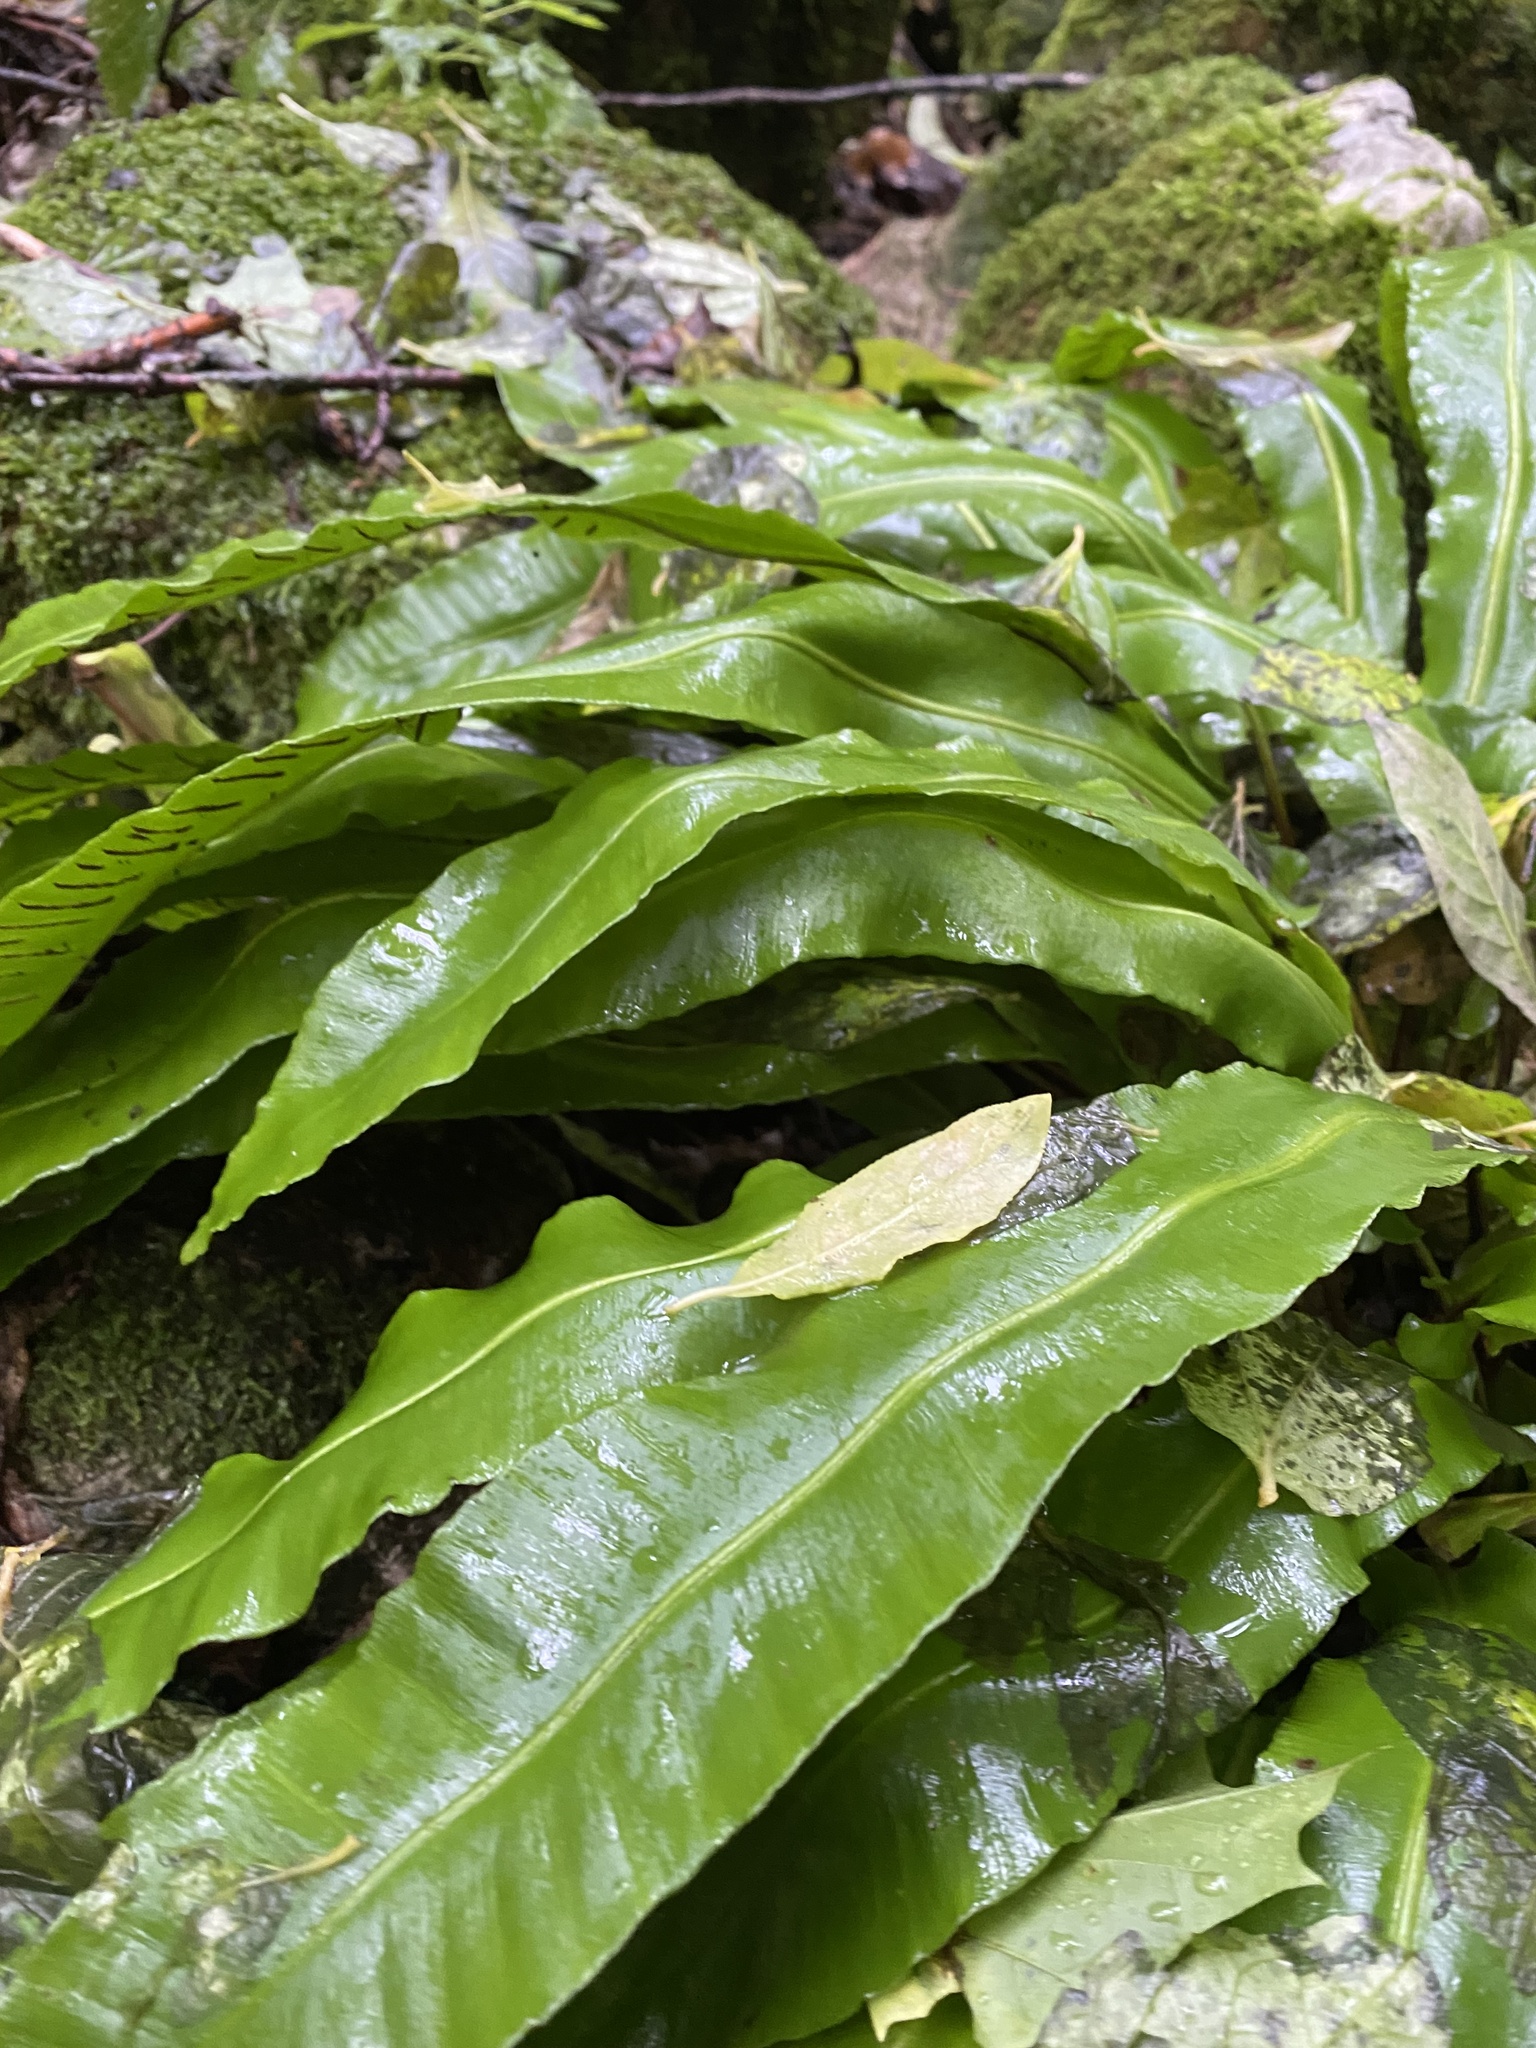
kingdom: Plantae
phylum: Tracheophyta
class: Polypodiopsida
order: Polypodiales
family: Aspleniaceae
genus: Asplenium
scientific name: Asplenium scolopendrium
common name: Hart's-tongue fern
